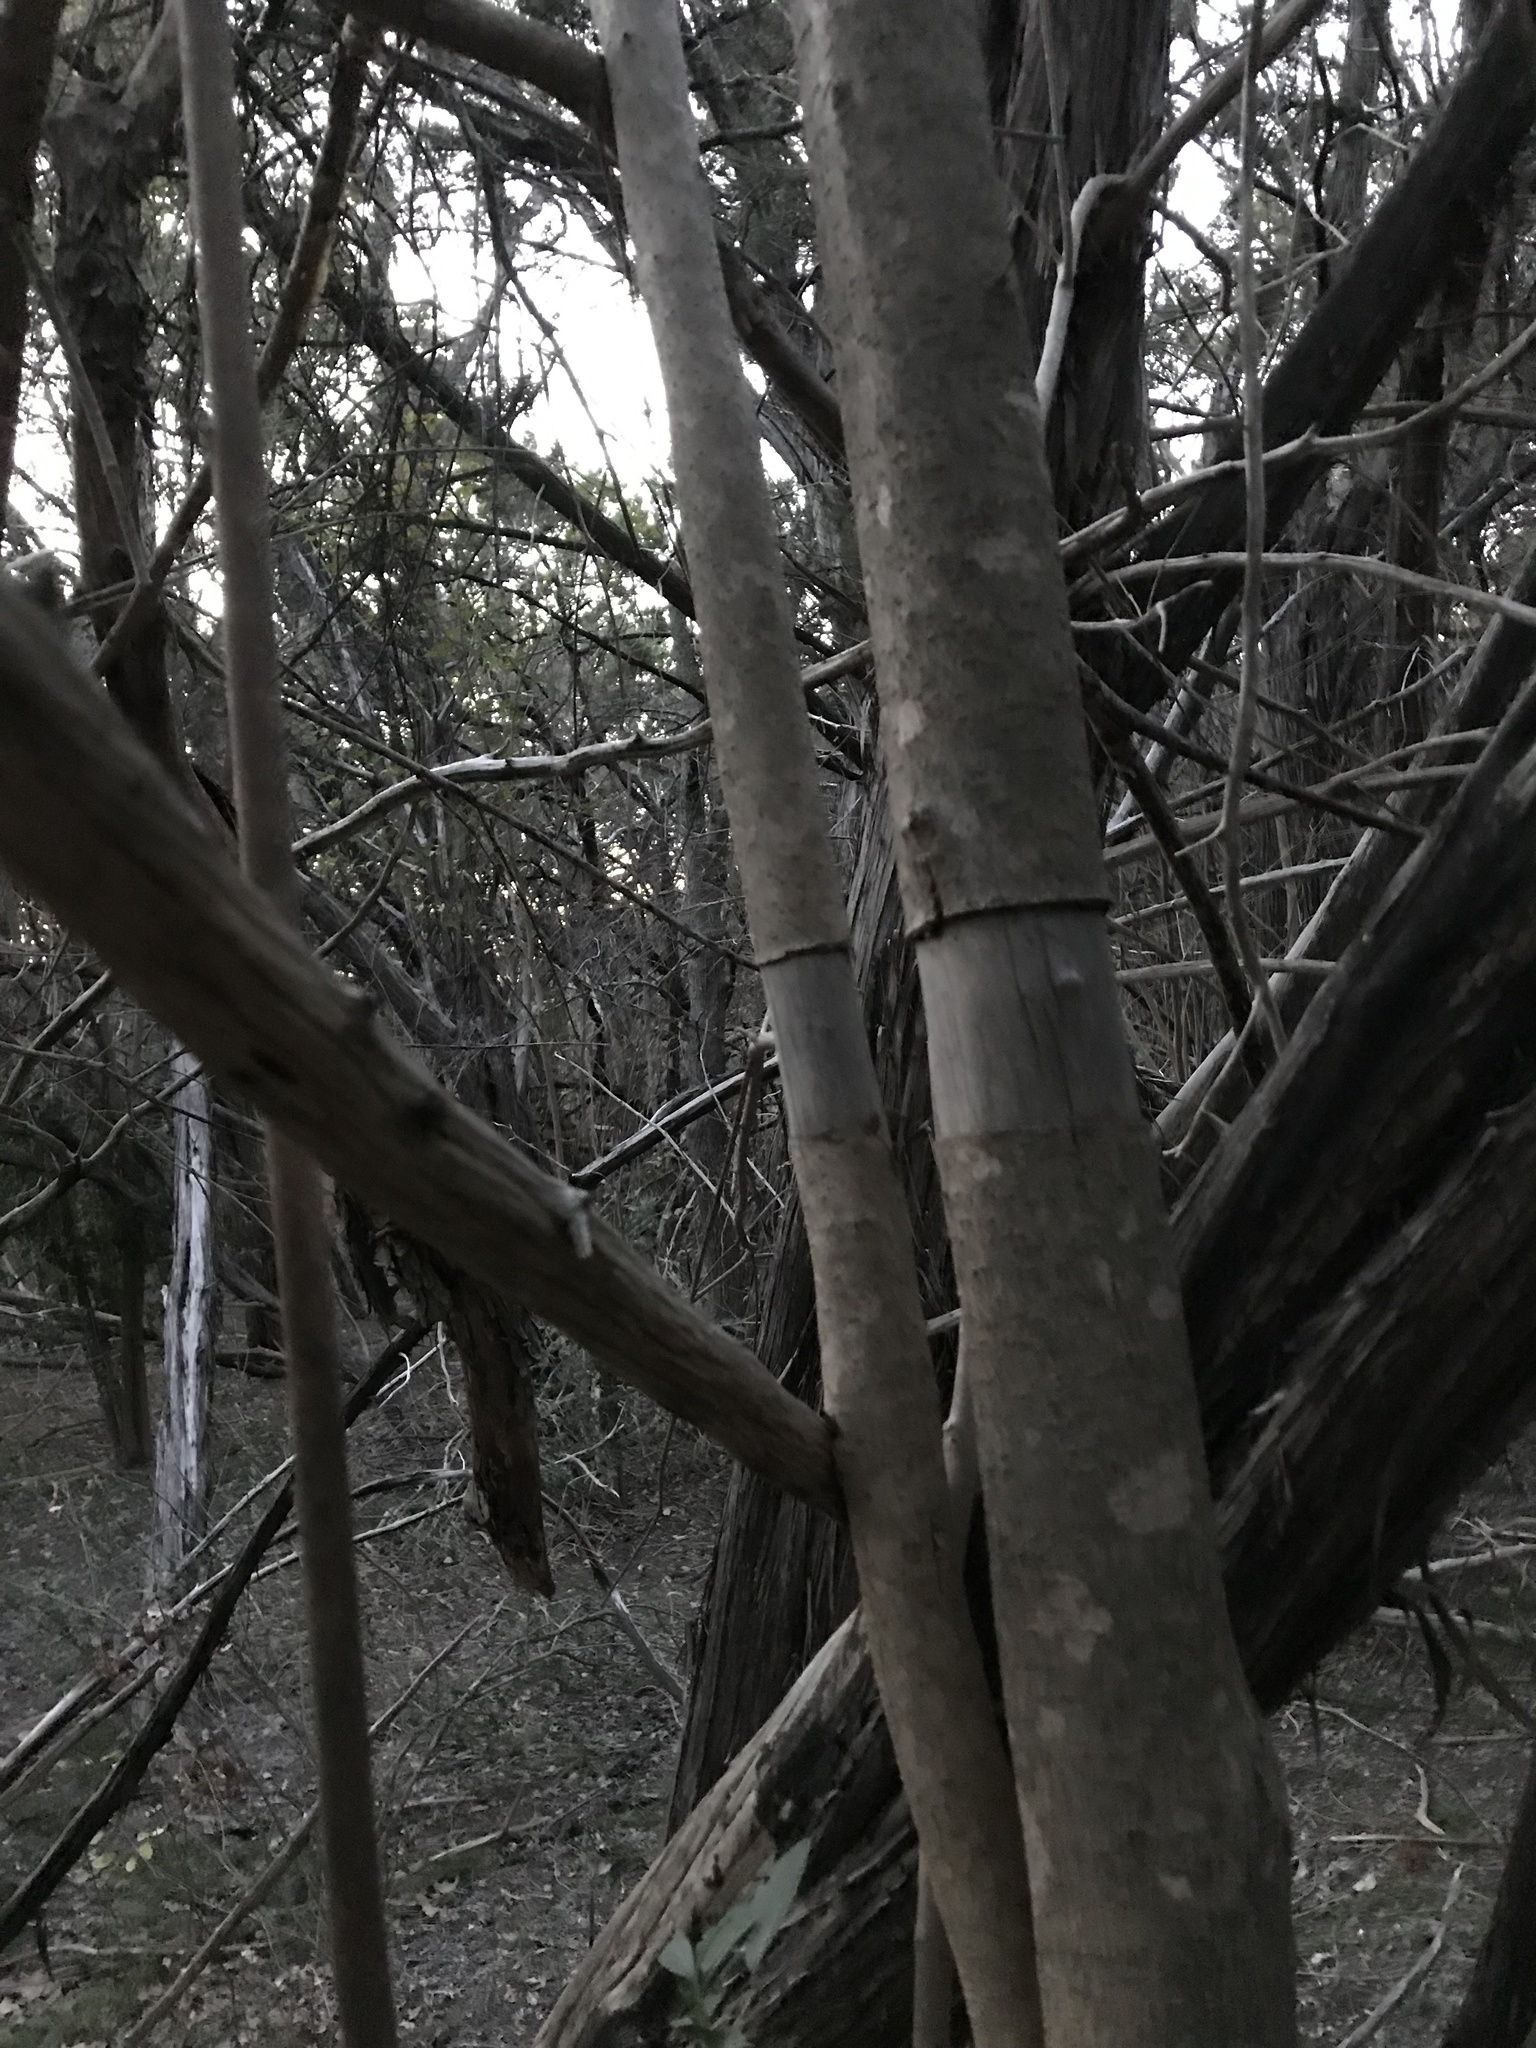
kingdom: Plantae
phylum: Tracheophyta
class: Magnoliopsida
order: Lamiales
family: Oleaceae
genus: Ligustrum
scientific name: Ligustrum lucidum
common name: Glossy privet
